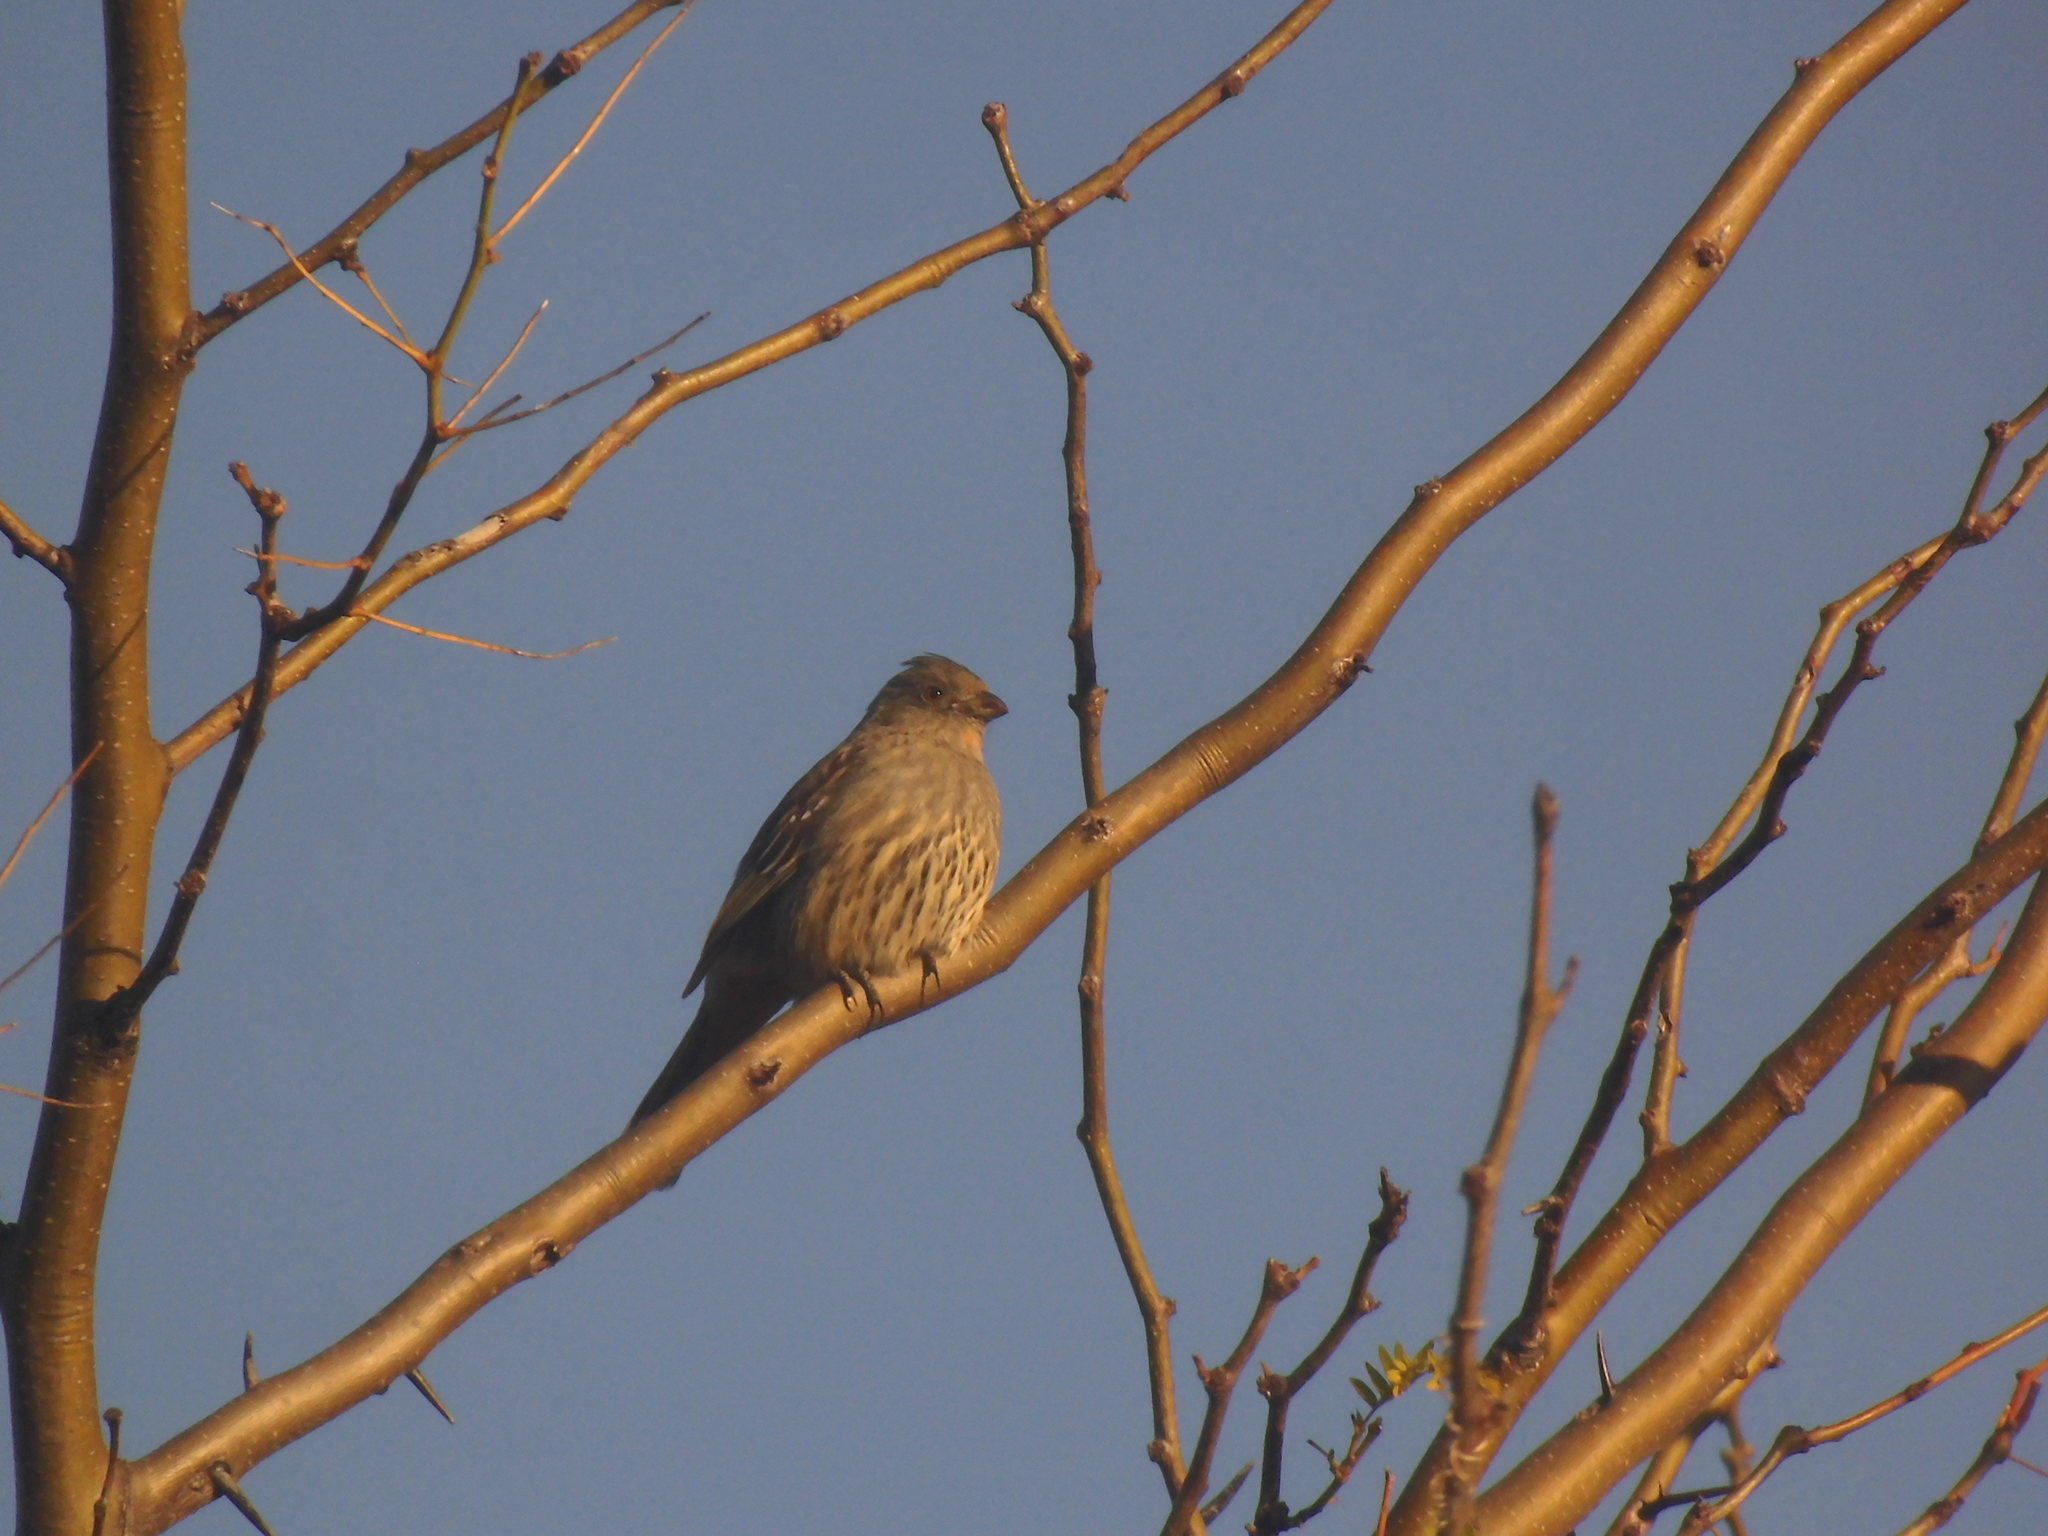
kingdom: Animalia
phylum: Chordata
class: Aves
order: Passeriformes
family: Cotingidae
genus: Phytotoma
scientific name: Phytotoma rutila
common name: White-tipped plantcutter
